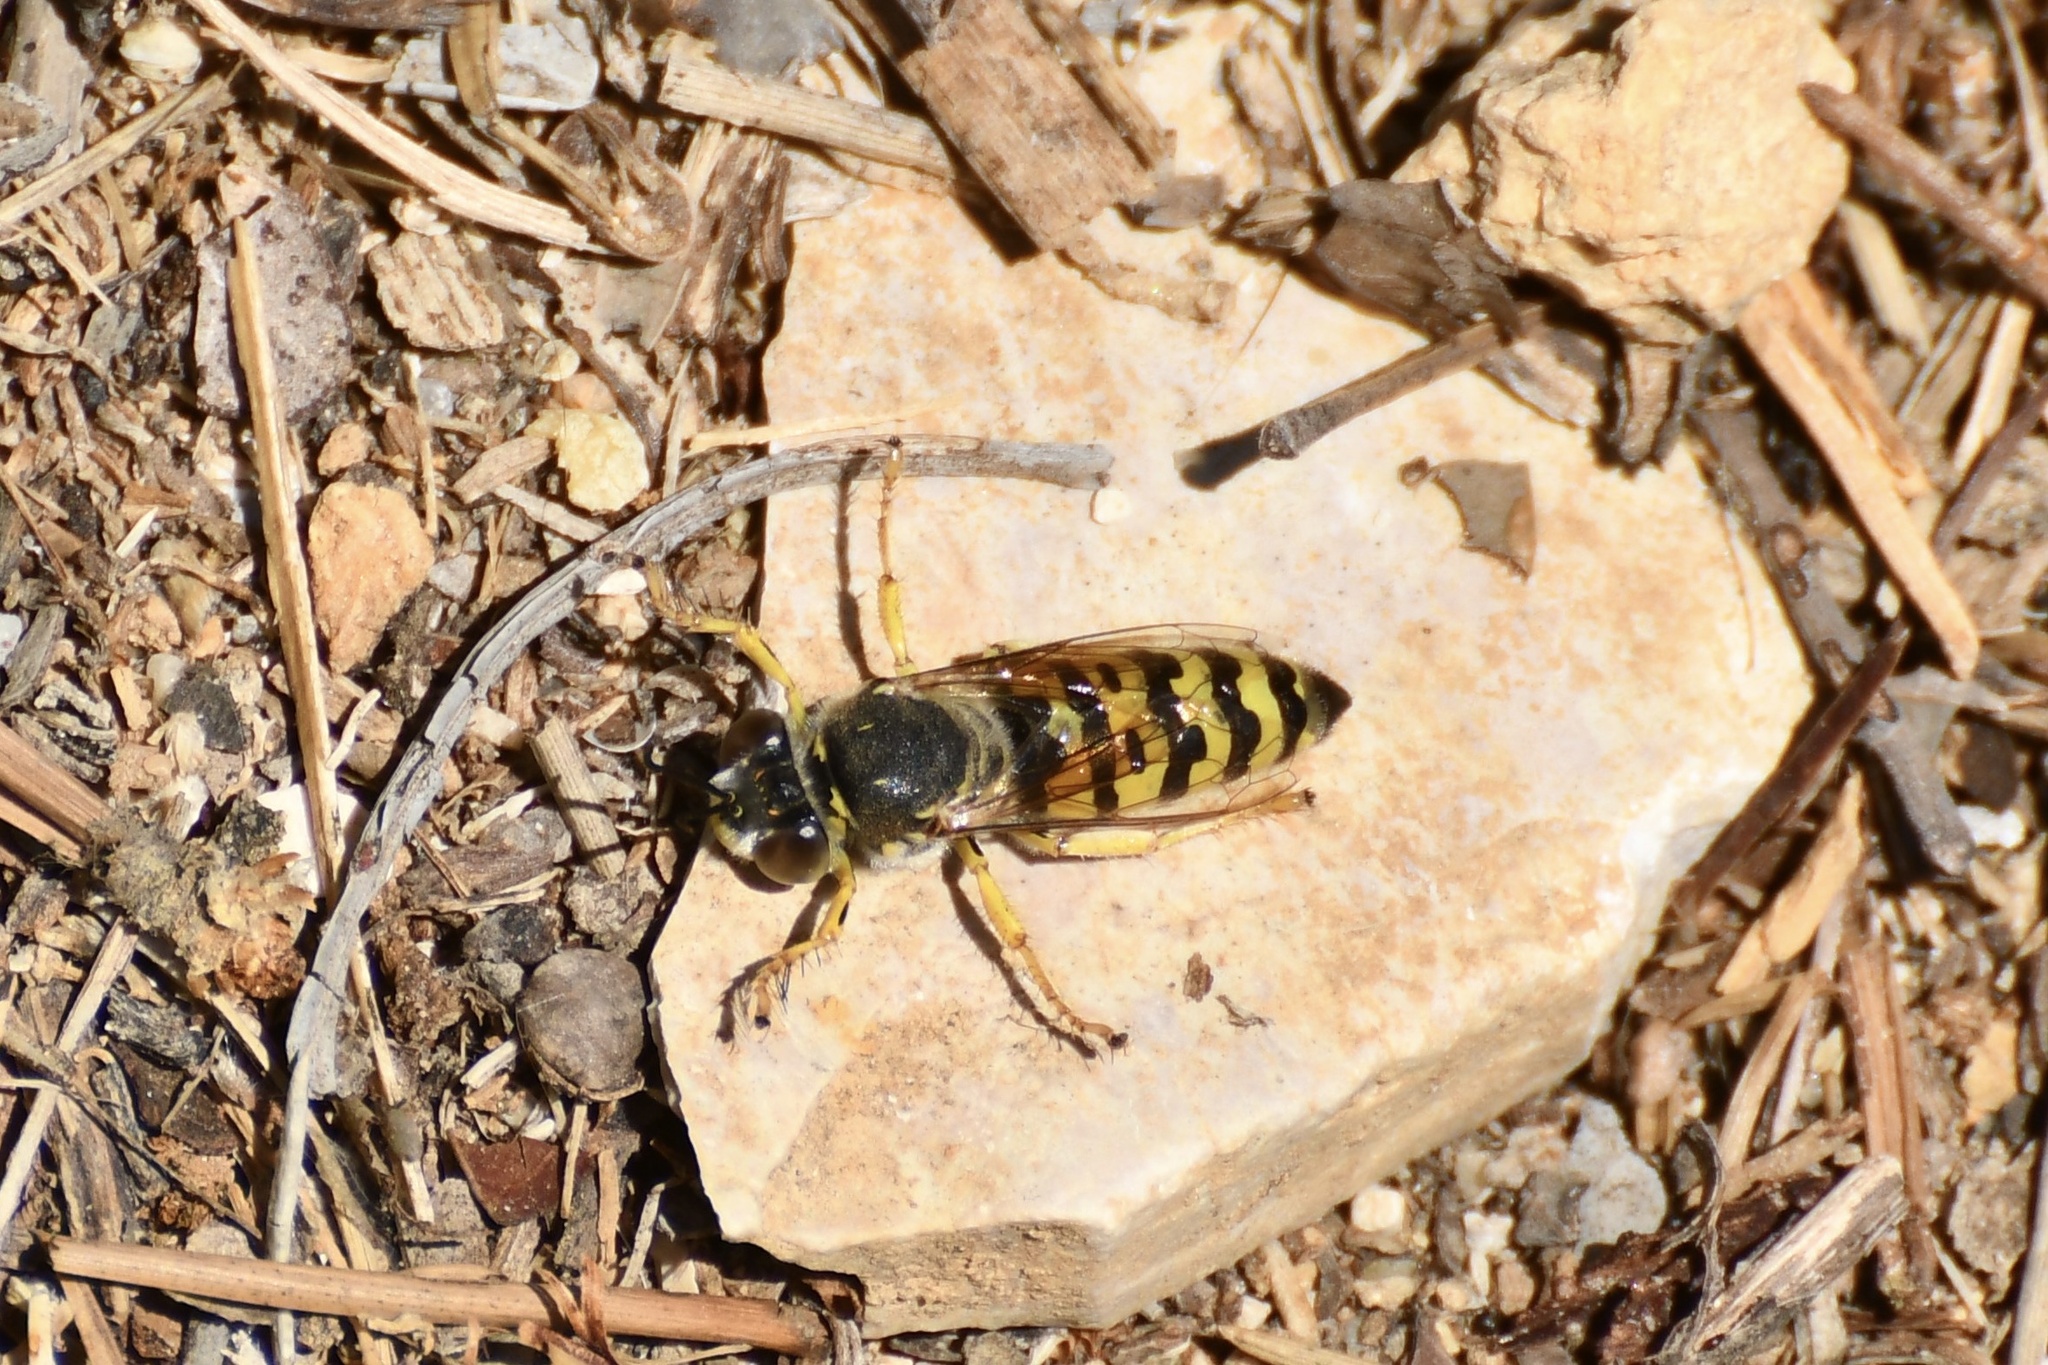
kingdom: Animalia
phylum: Arthropoda
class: Insecta
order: Hymenoptera
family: Crabronidae
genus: Bembix
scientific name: Bembix oculata
